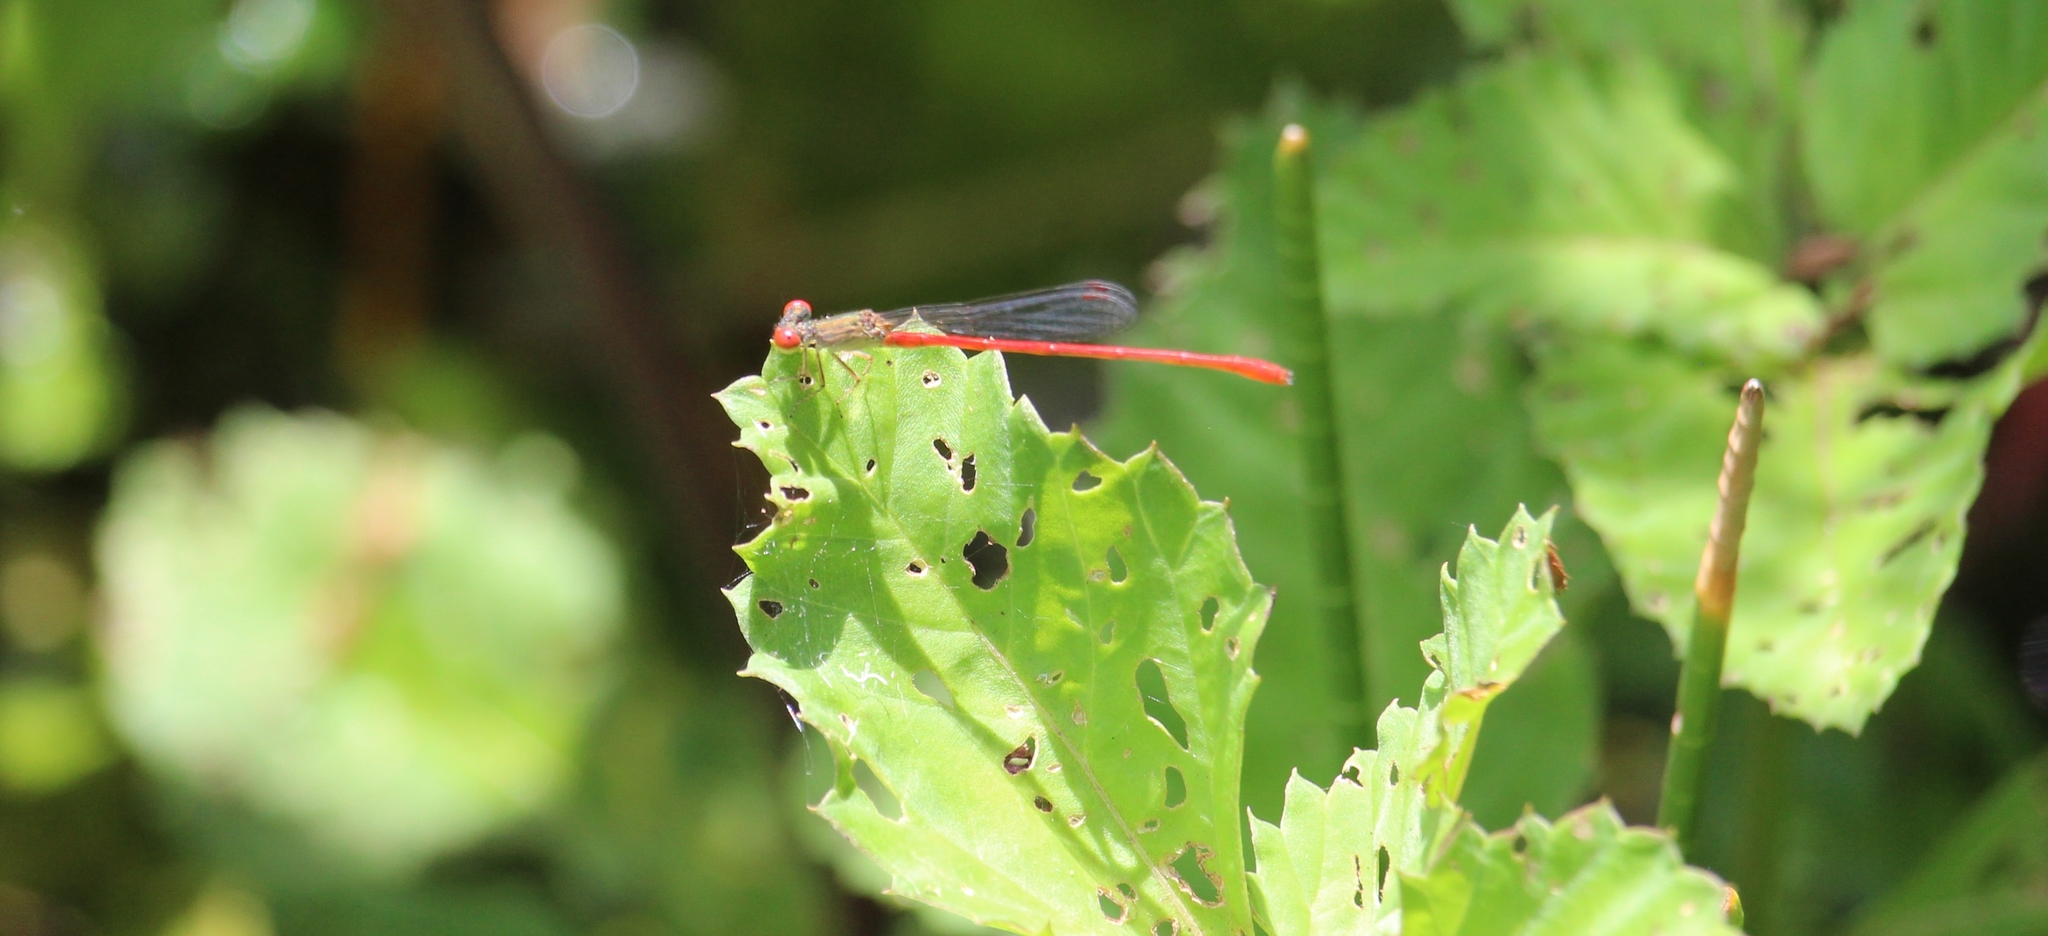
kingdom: Animalia
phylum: Arthropoda
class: Insecta
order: Odonata
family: Coenagrionidae
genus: Telebasis
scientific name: Telebasis digiticollis
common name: Marsh firetail
